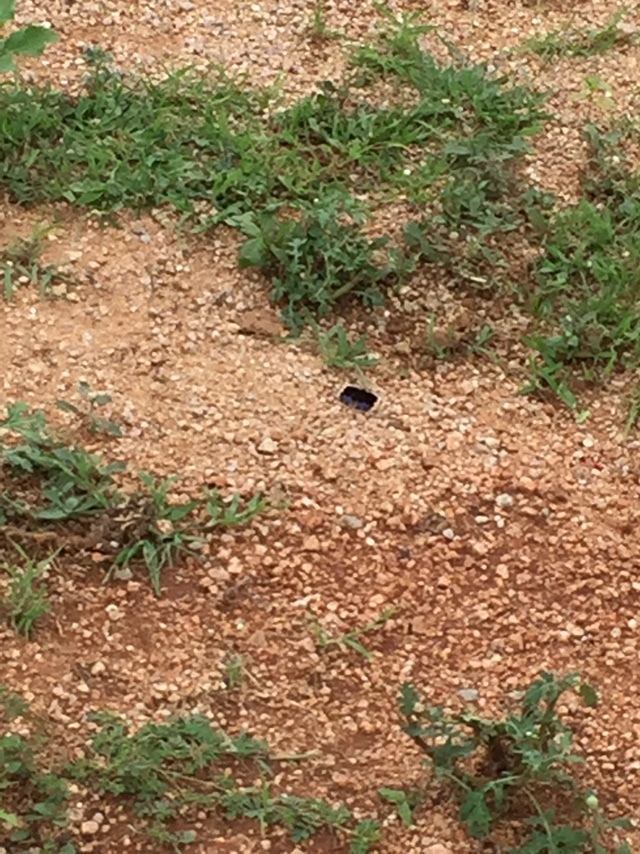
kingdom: Animalia
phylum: Arthropoda
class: Insecta
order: Lepidoptera
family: Nymphalidae
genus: Junonia
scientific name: Junonia orithya
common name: Blue pansy
